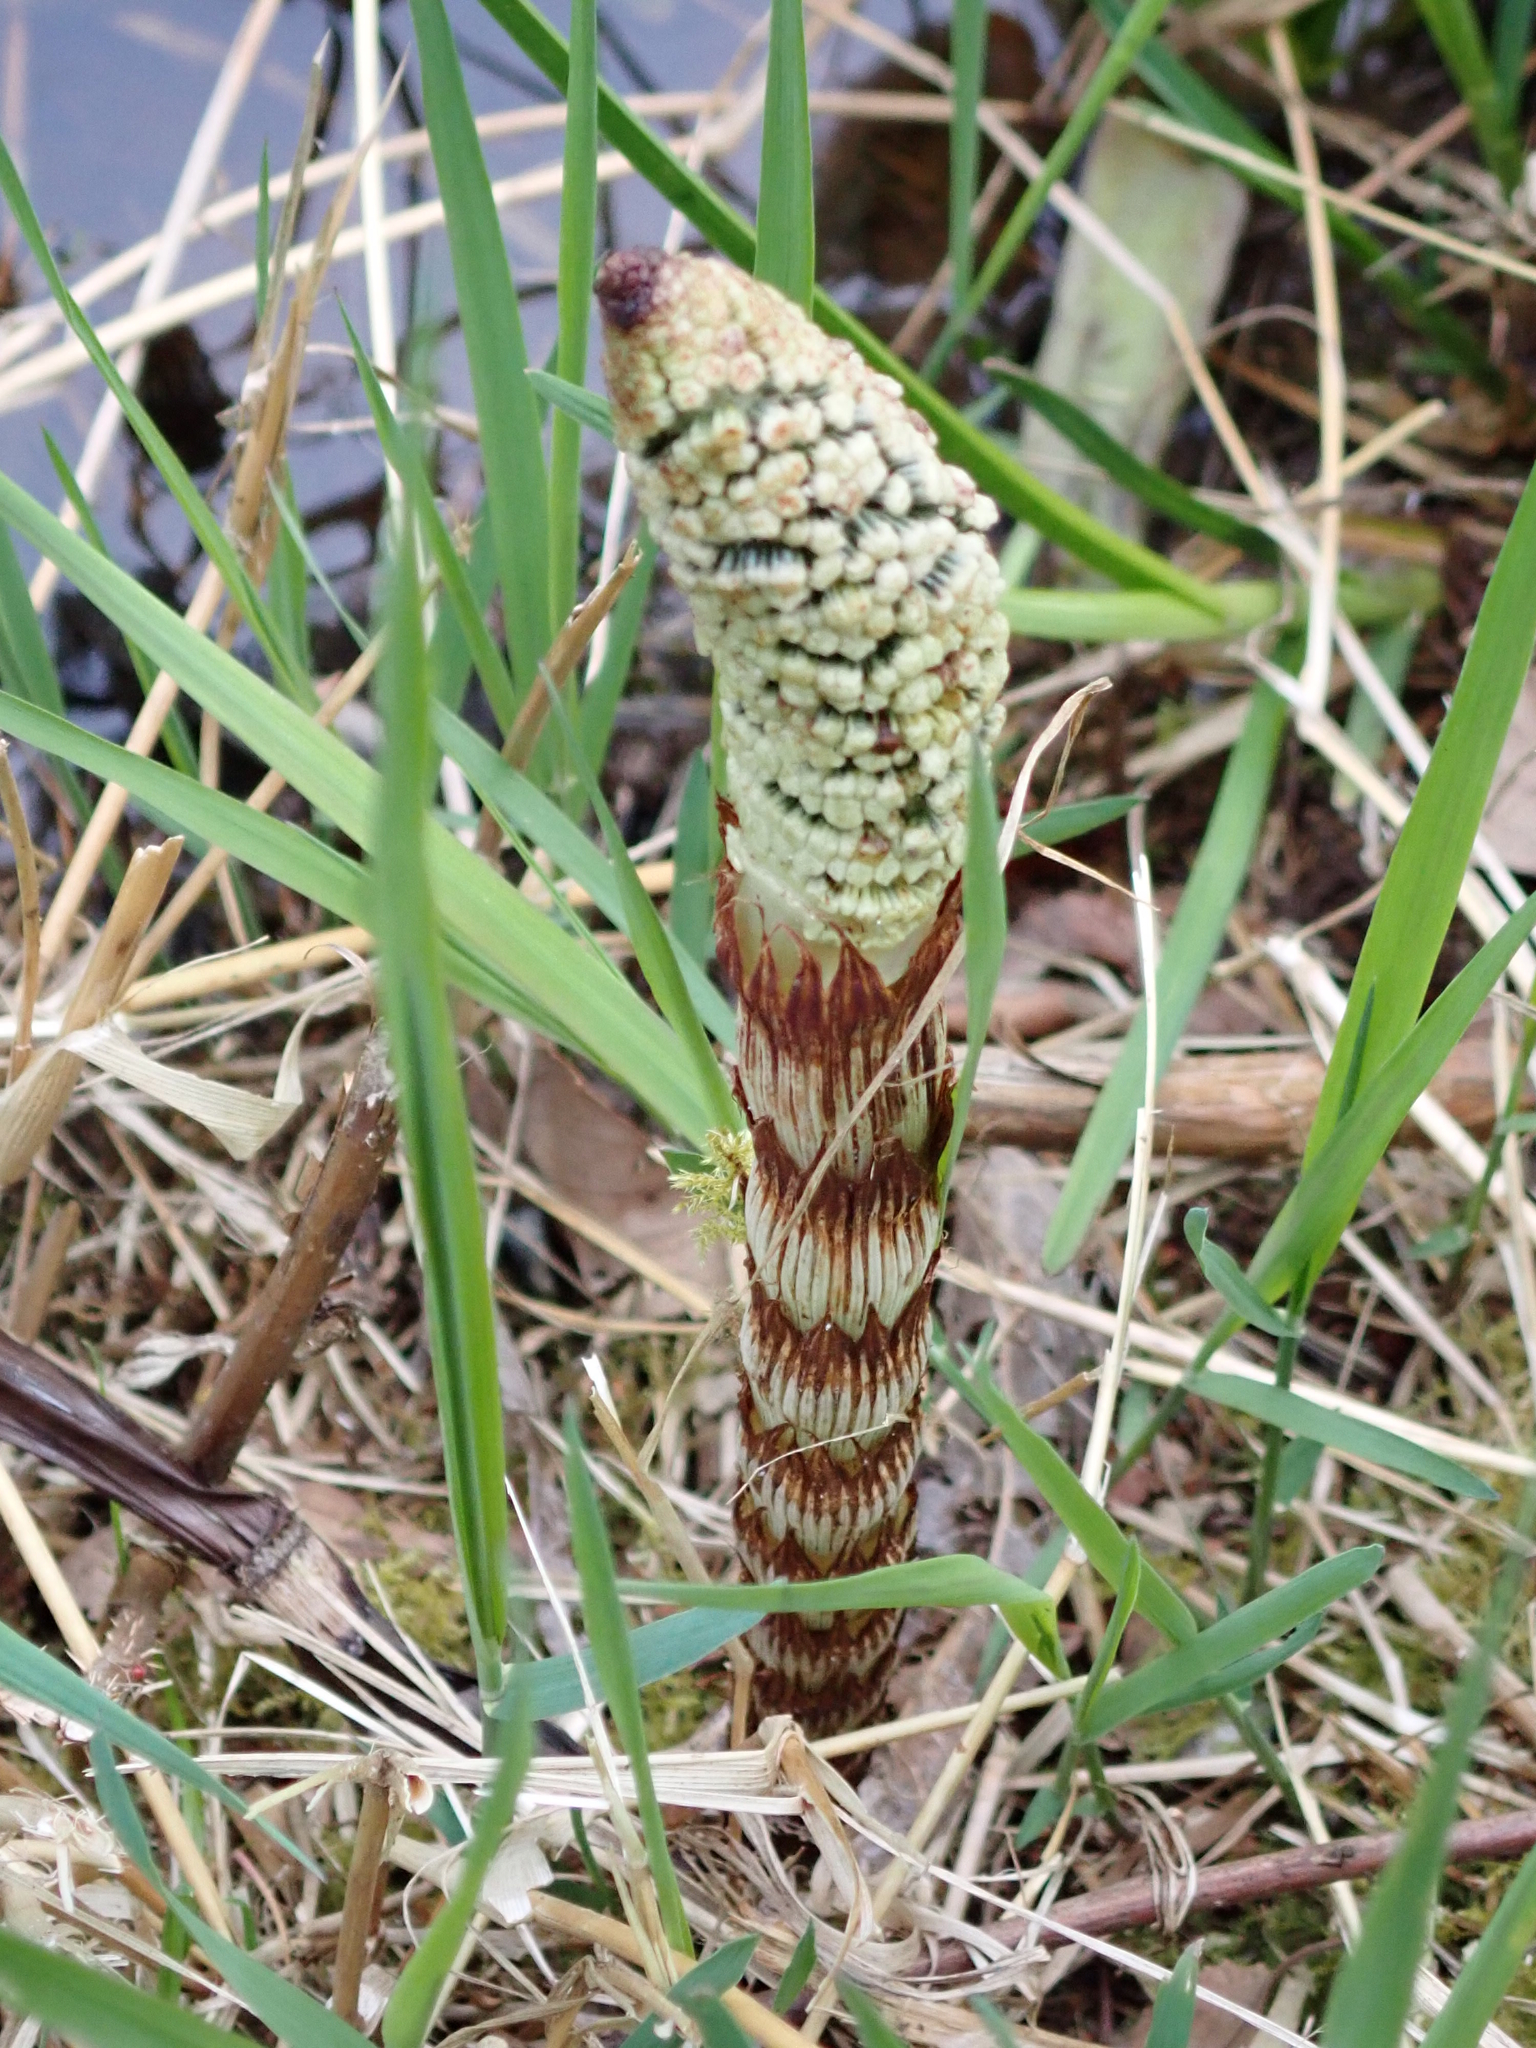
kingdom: Plantae
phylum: Tracheophyta
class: Polypodiopsida
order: Equisetales
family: Equisetaceae
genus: Equisetum
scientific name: Equisetum braunii
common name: Braun's horsetail
